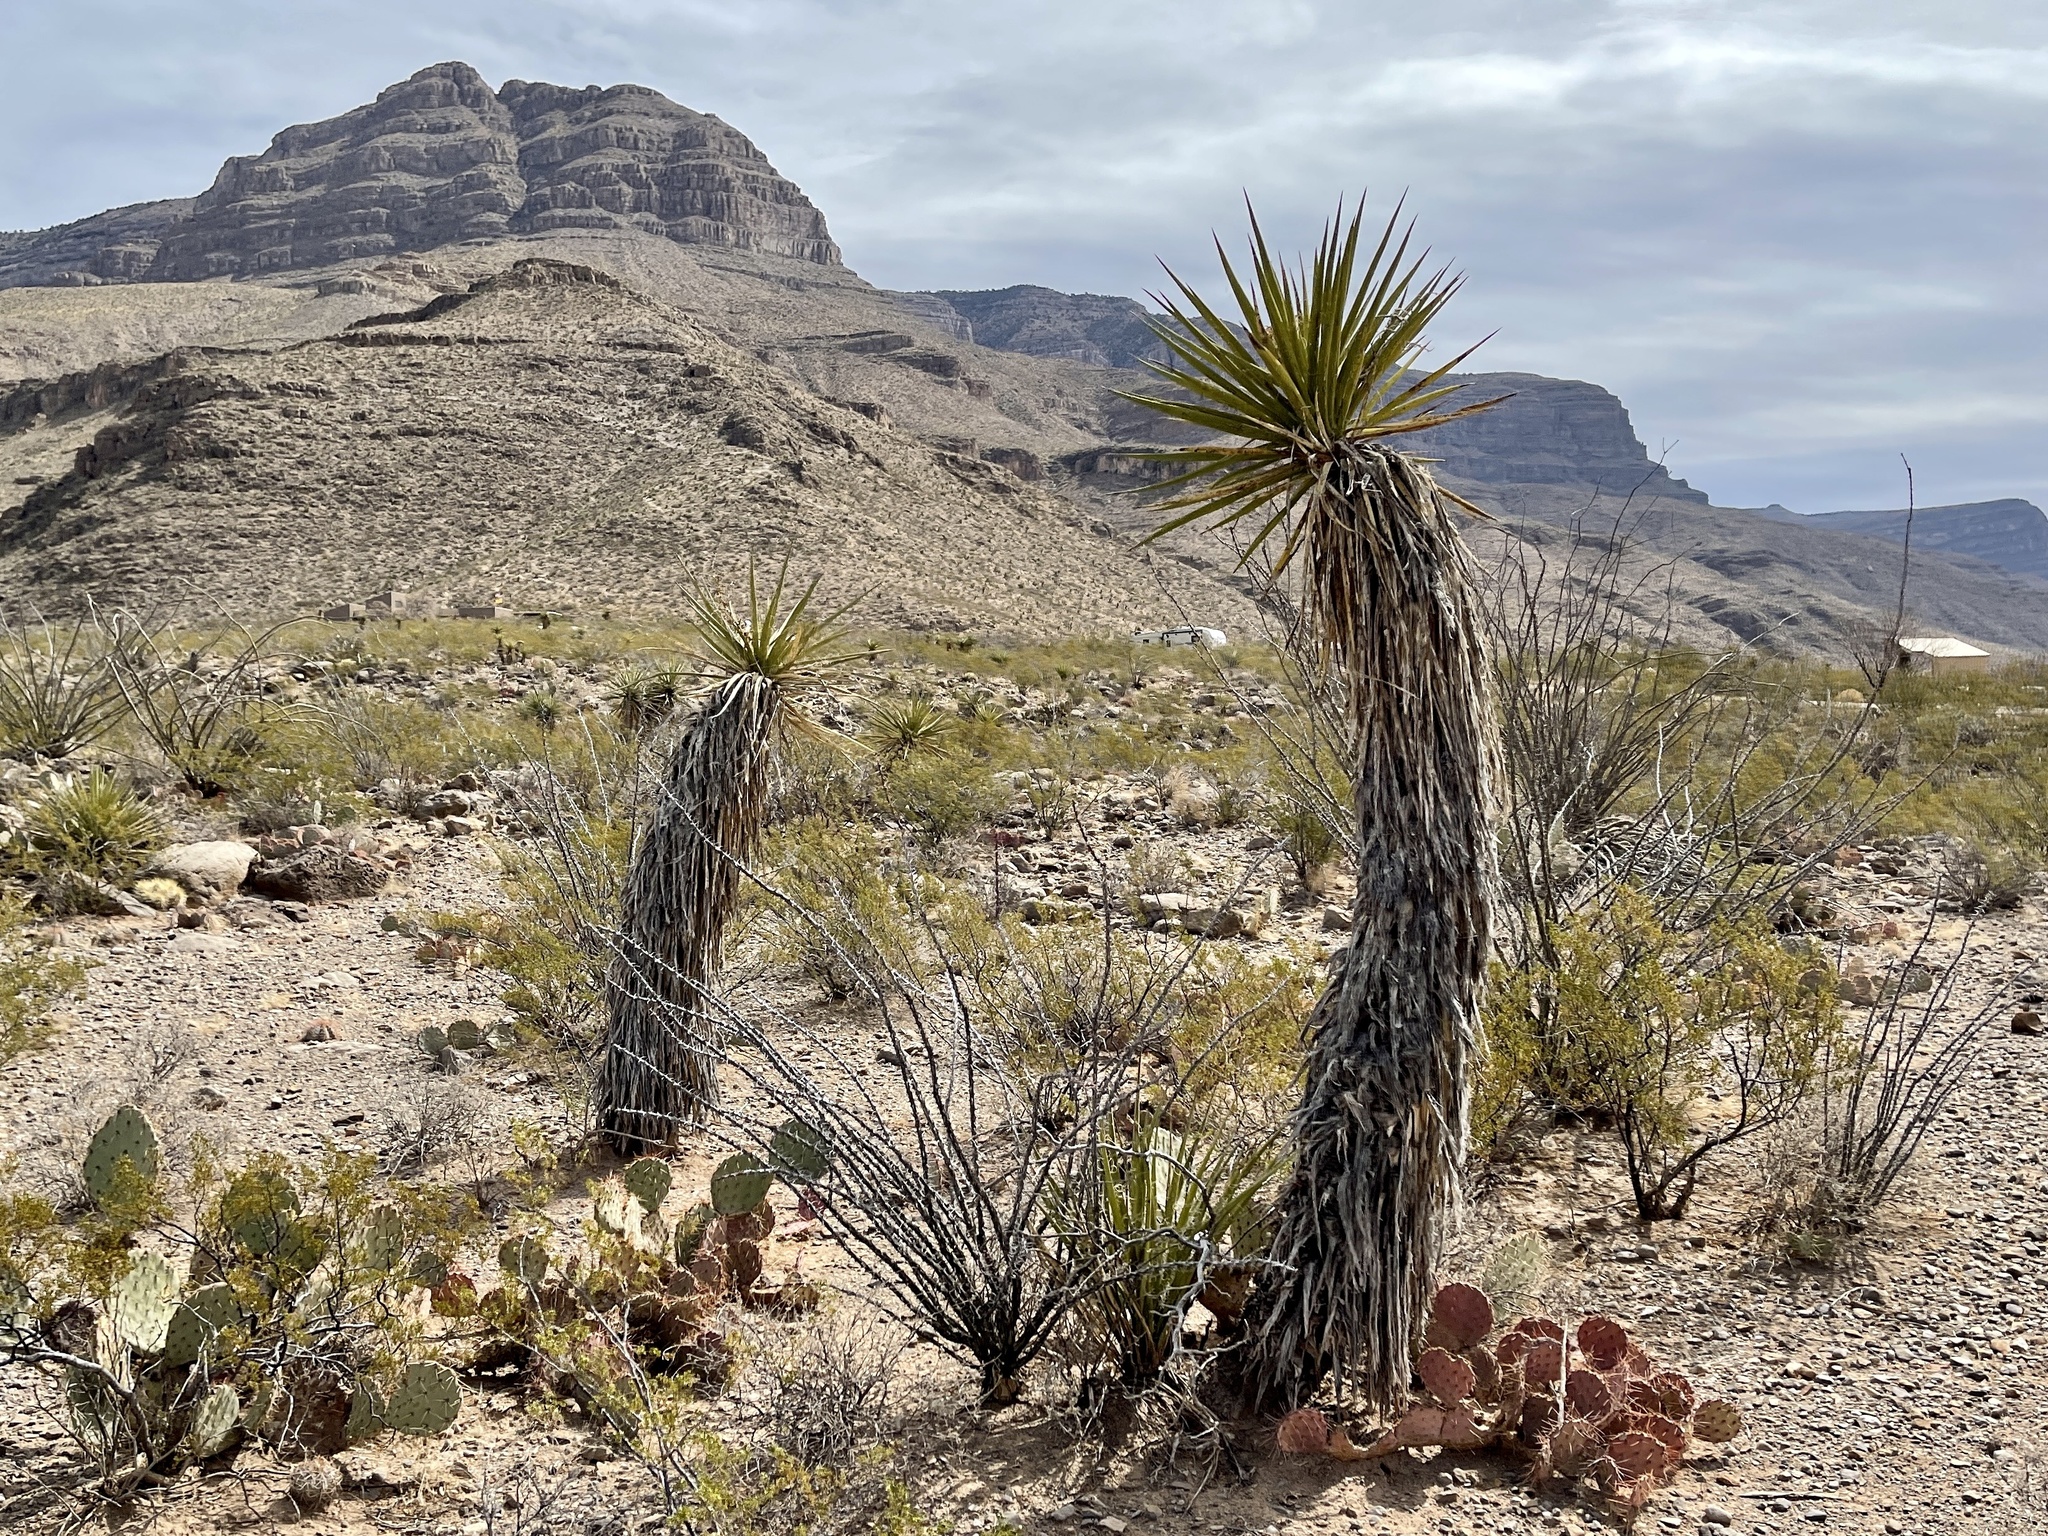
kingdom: Plantae
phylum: Tracheophyta
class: Liliopsida
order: Asparagales
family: Asparagaceae
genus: Yucca
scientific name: Yucca treculiana
